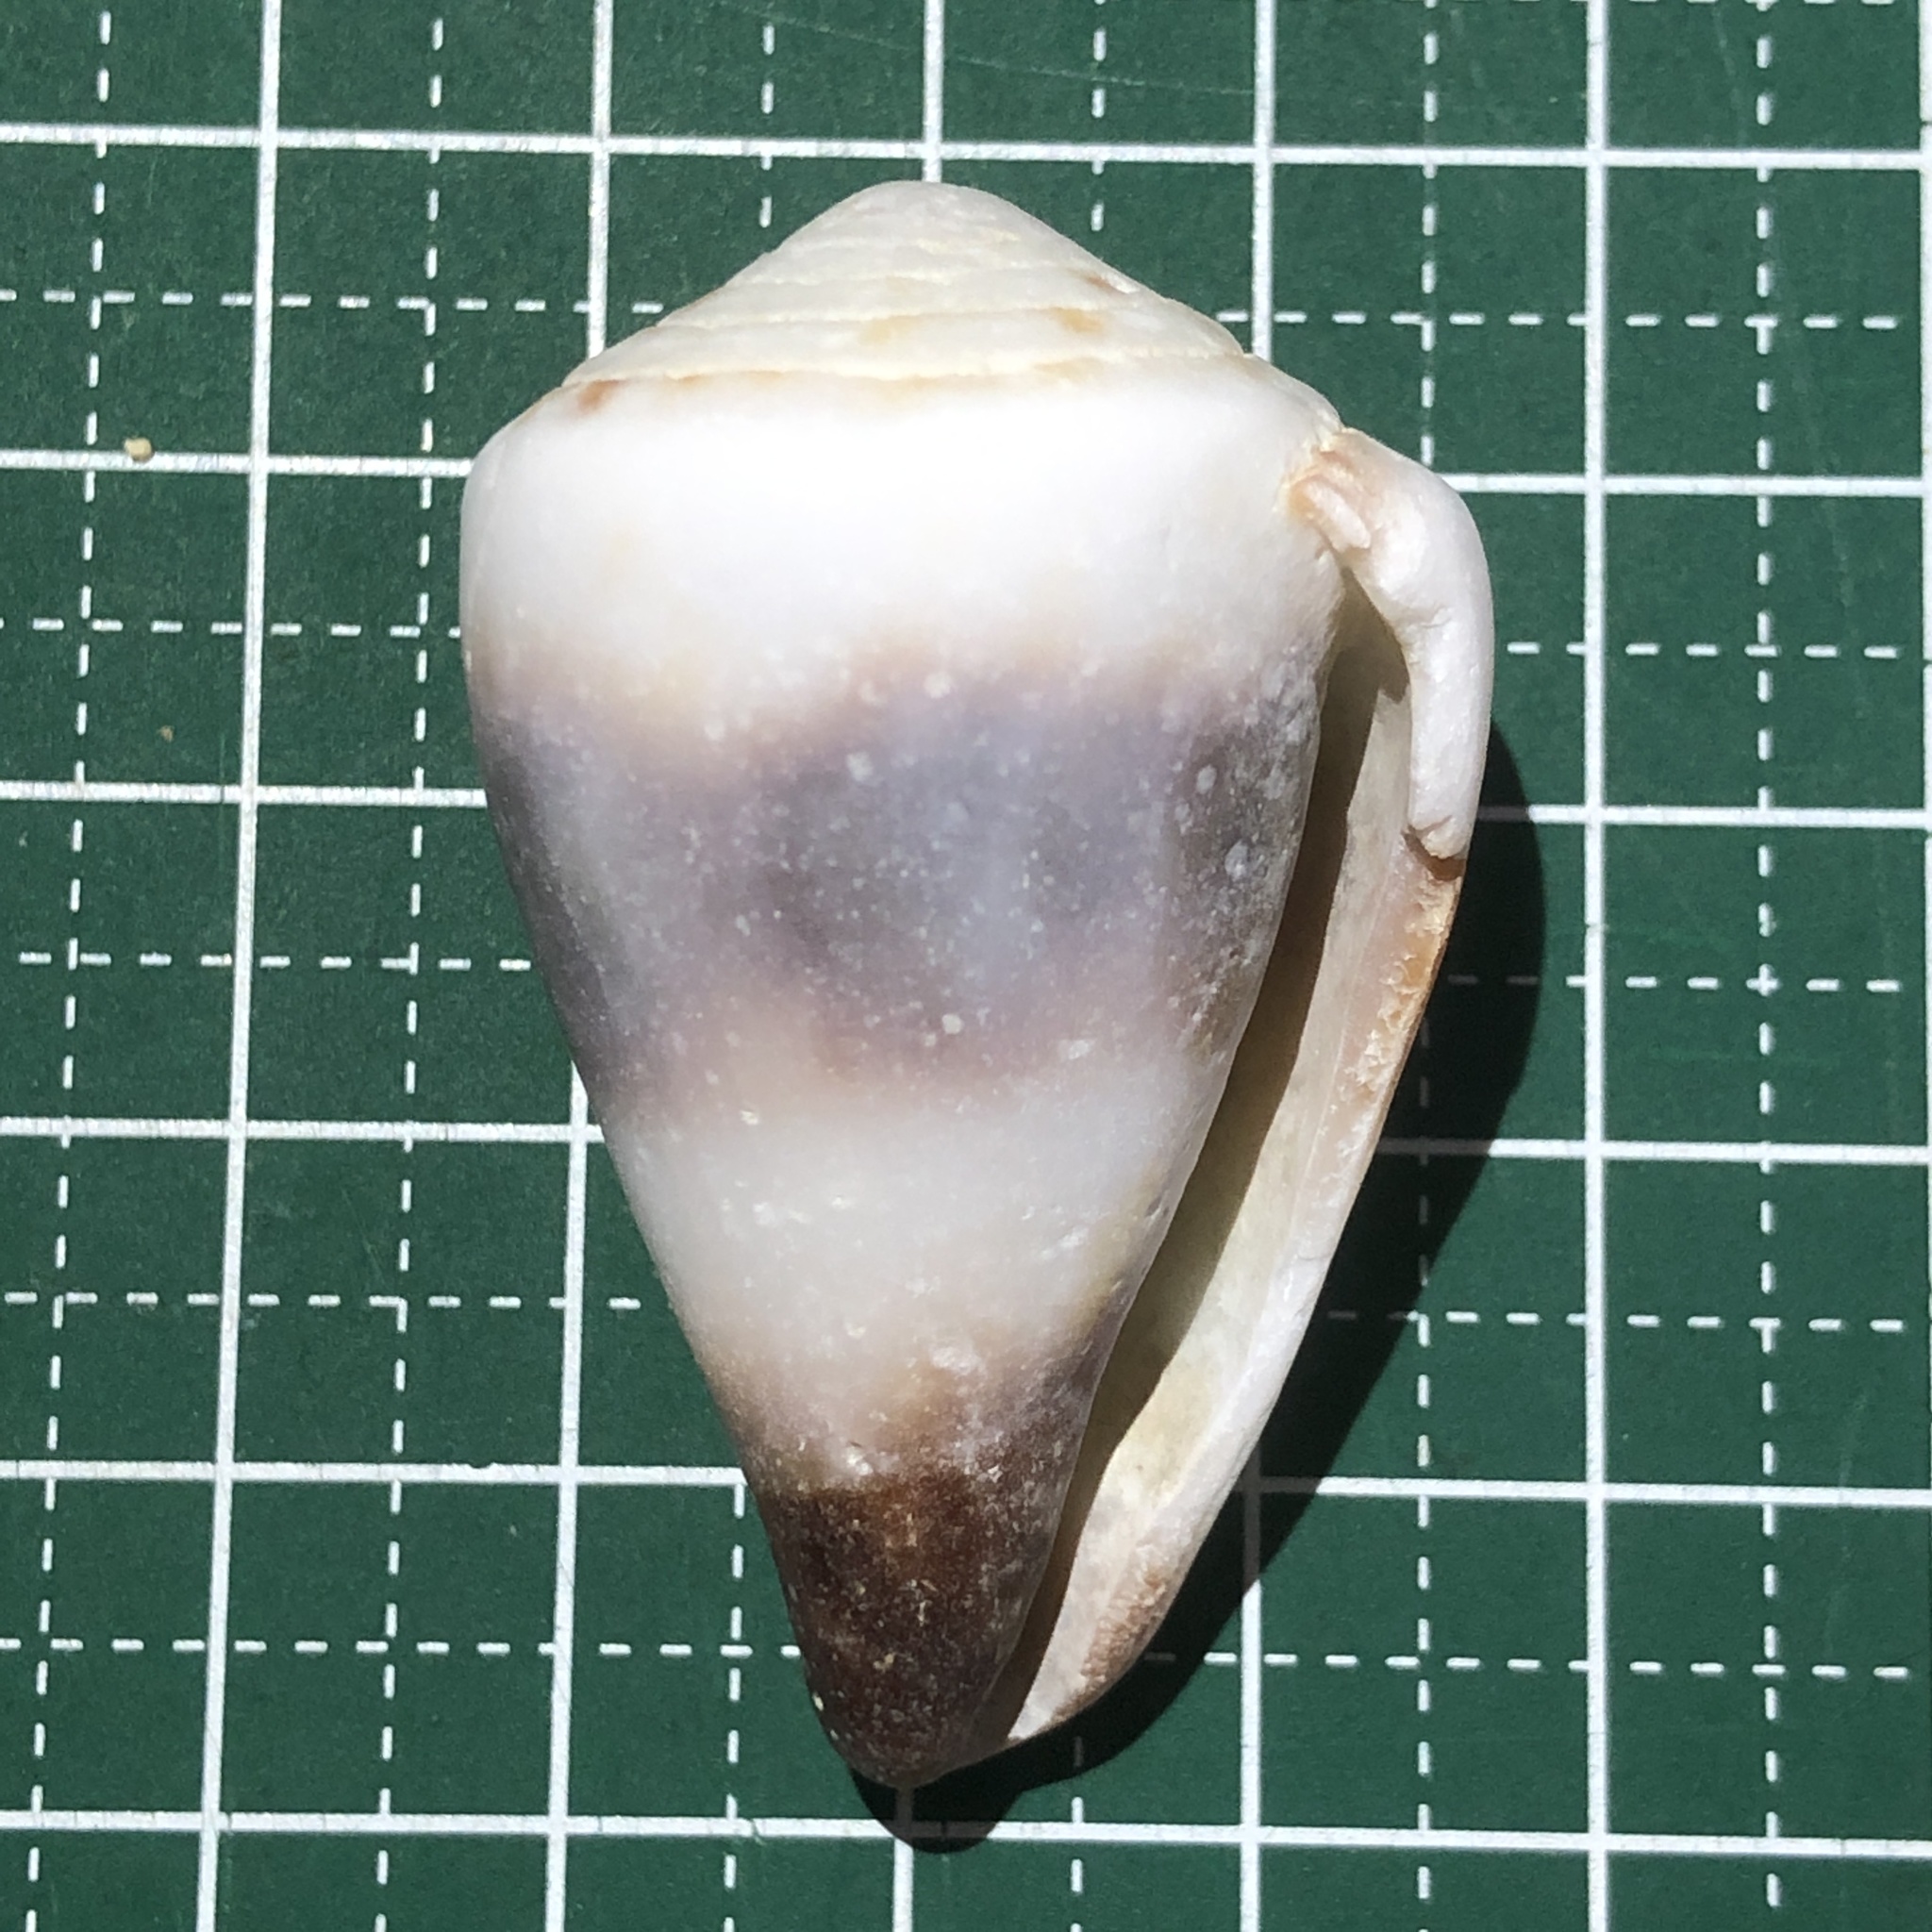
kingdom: Animalia
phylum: Mollusca
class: Gastropoda
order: Neogastropoda
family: Conidae
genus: Conus
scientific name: Conus miles
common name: Soldier cone
